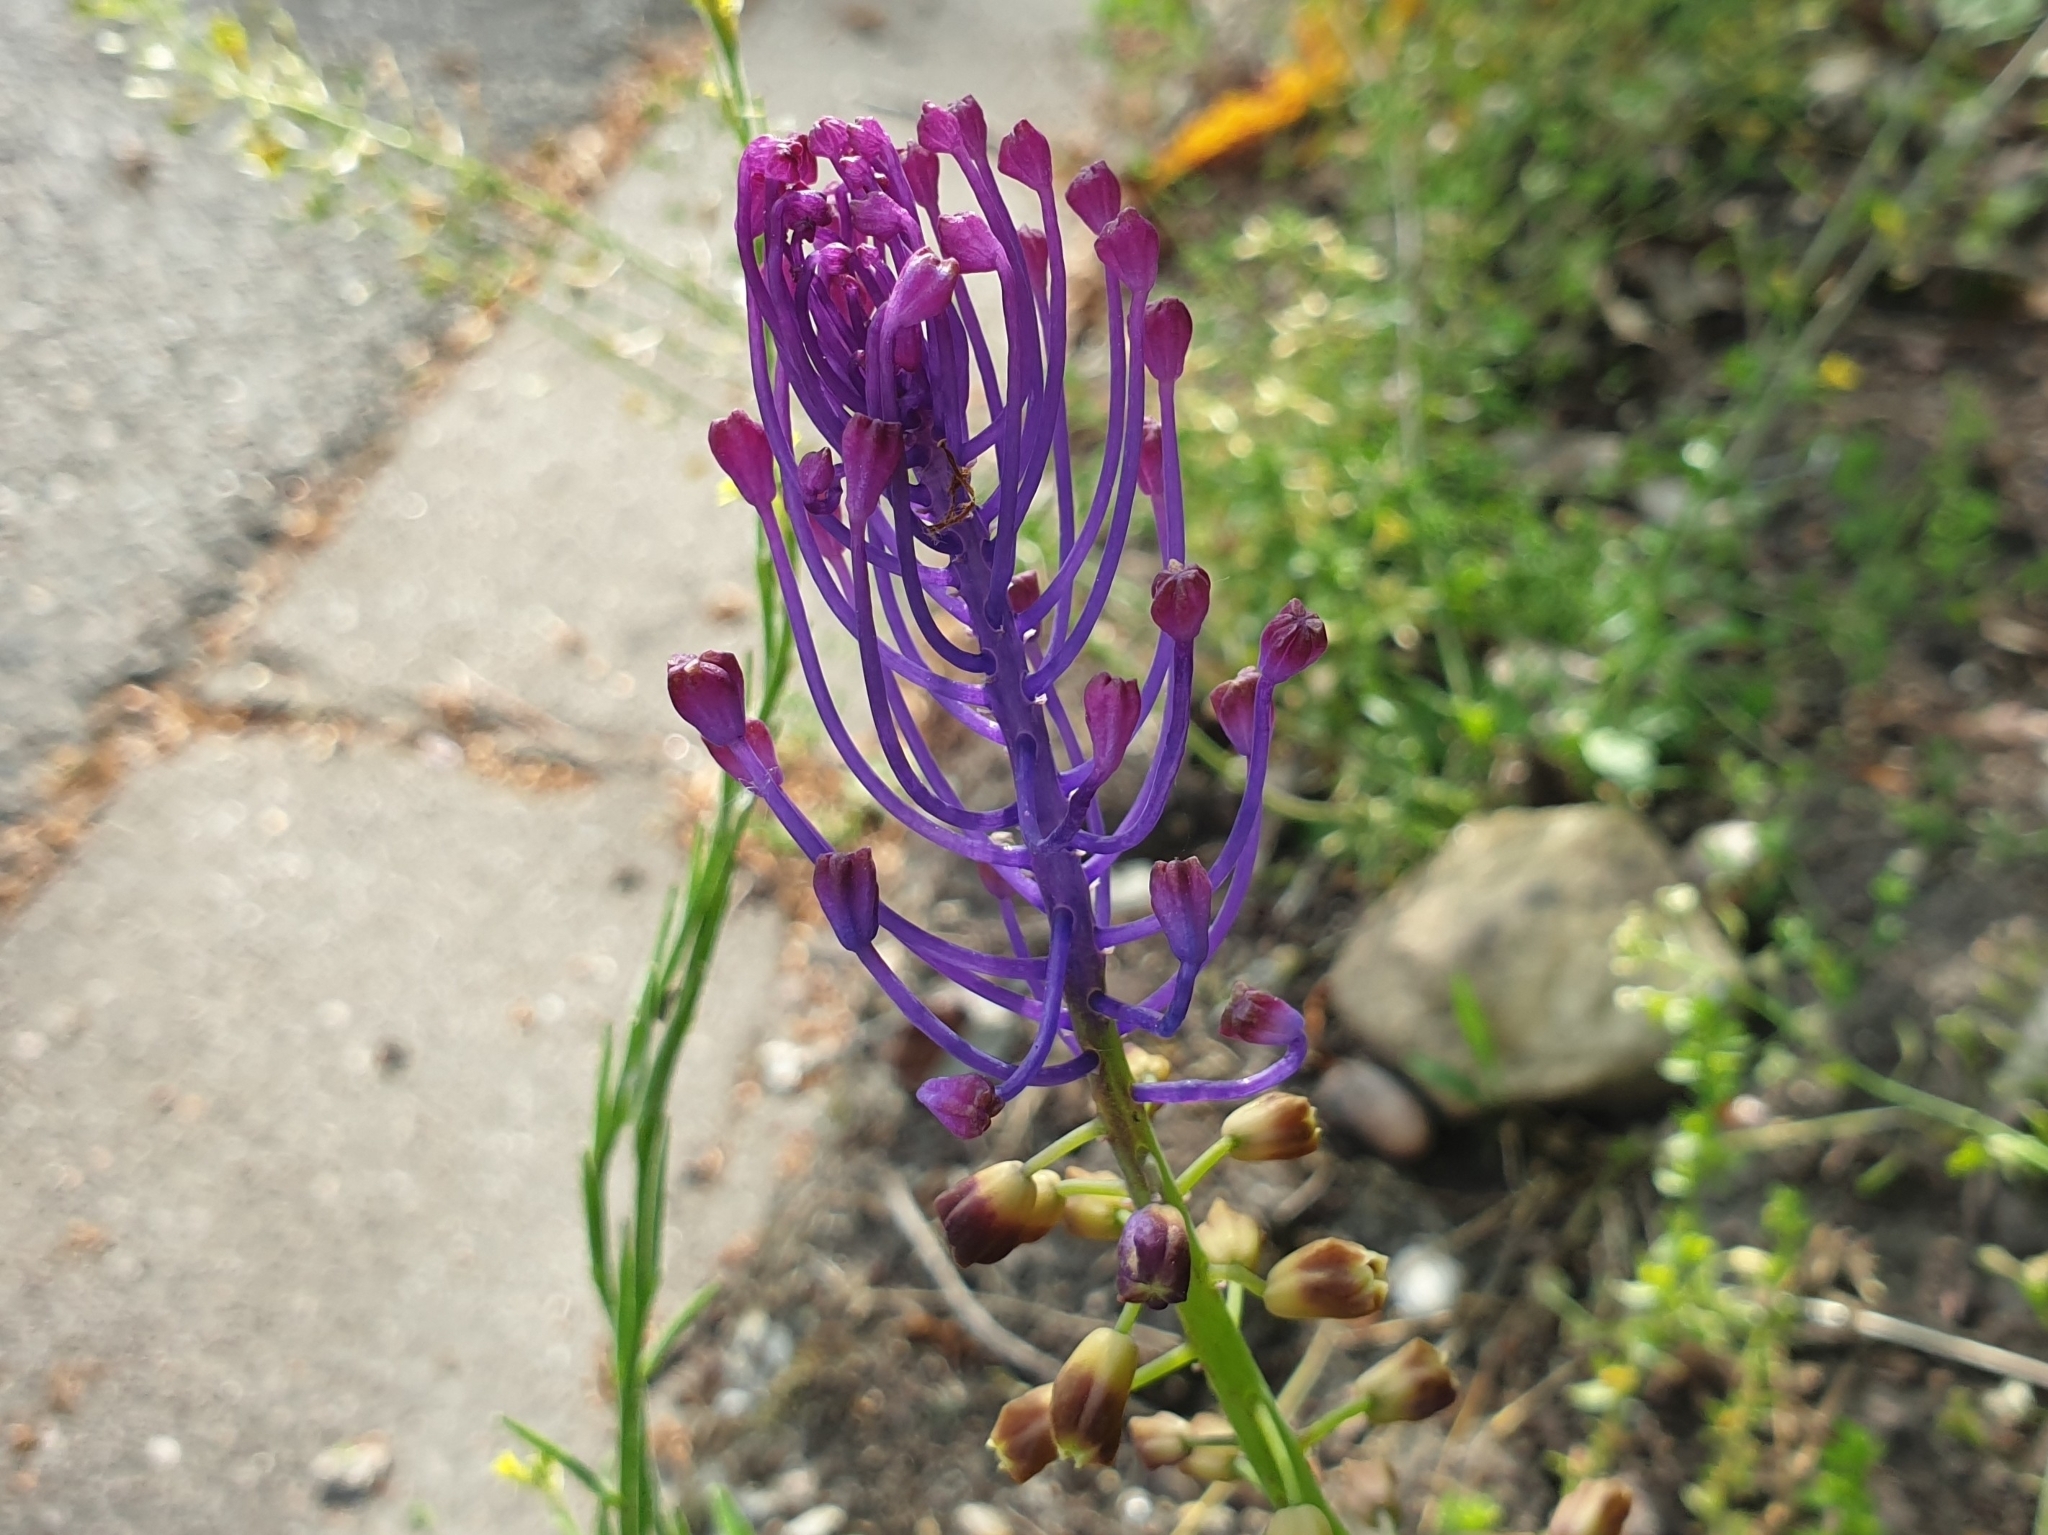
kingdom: Plantae
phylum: Tracheophyta
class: Liliopsida
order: Asparagales
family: Asparagaceae
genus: Muscari
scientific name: Muscari comosum
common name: Tassel hyacinth
